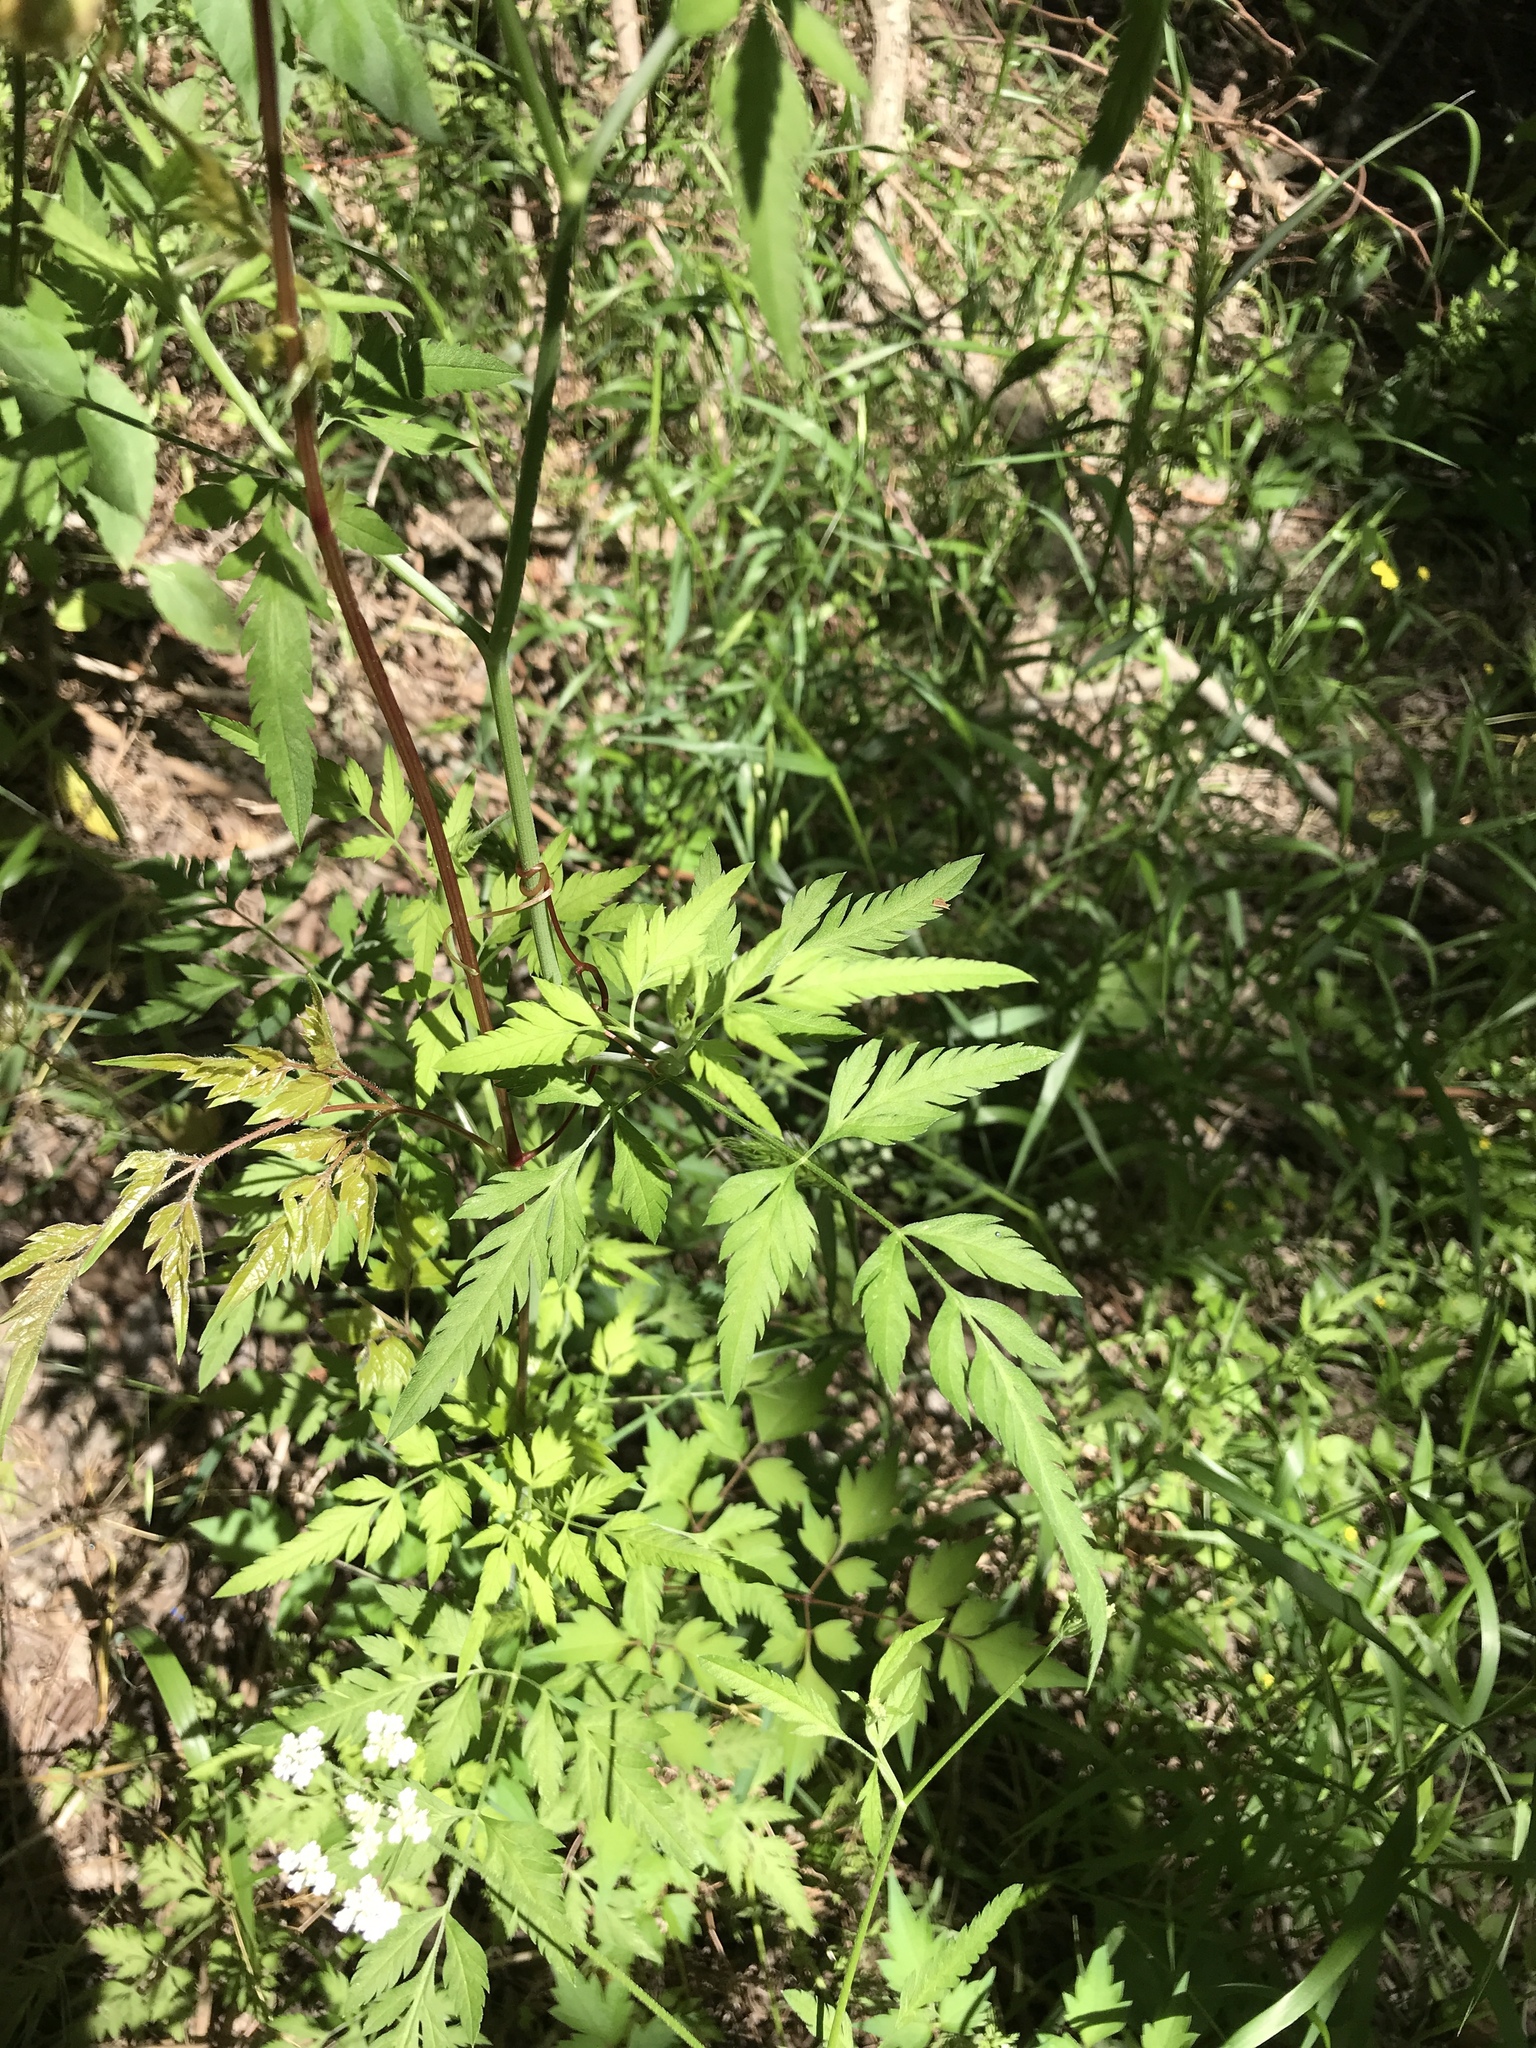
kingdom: Plantae
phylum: Tracheophyta
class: Magnoliopsida
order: Apiales
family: Apiaceae
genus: Torilis
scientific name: Torilis arvensis
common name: Spreading hedge-parsley
